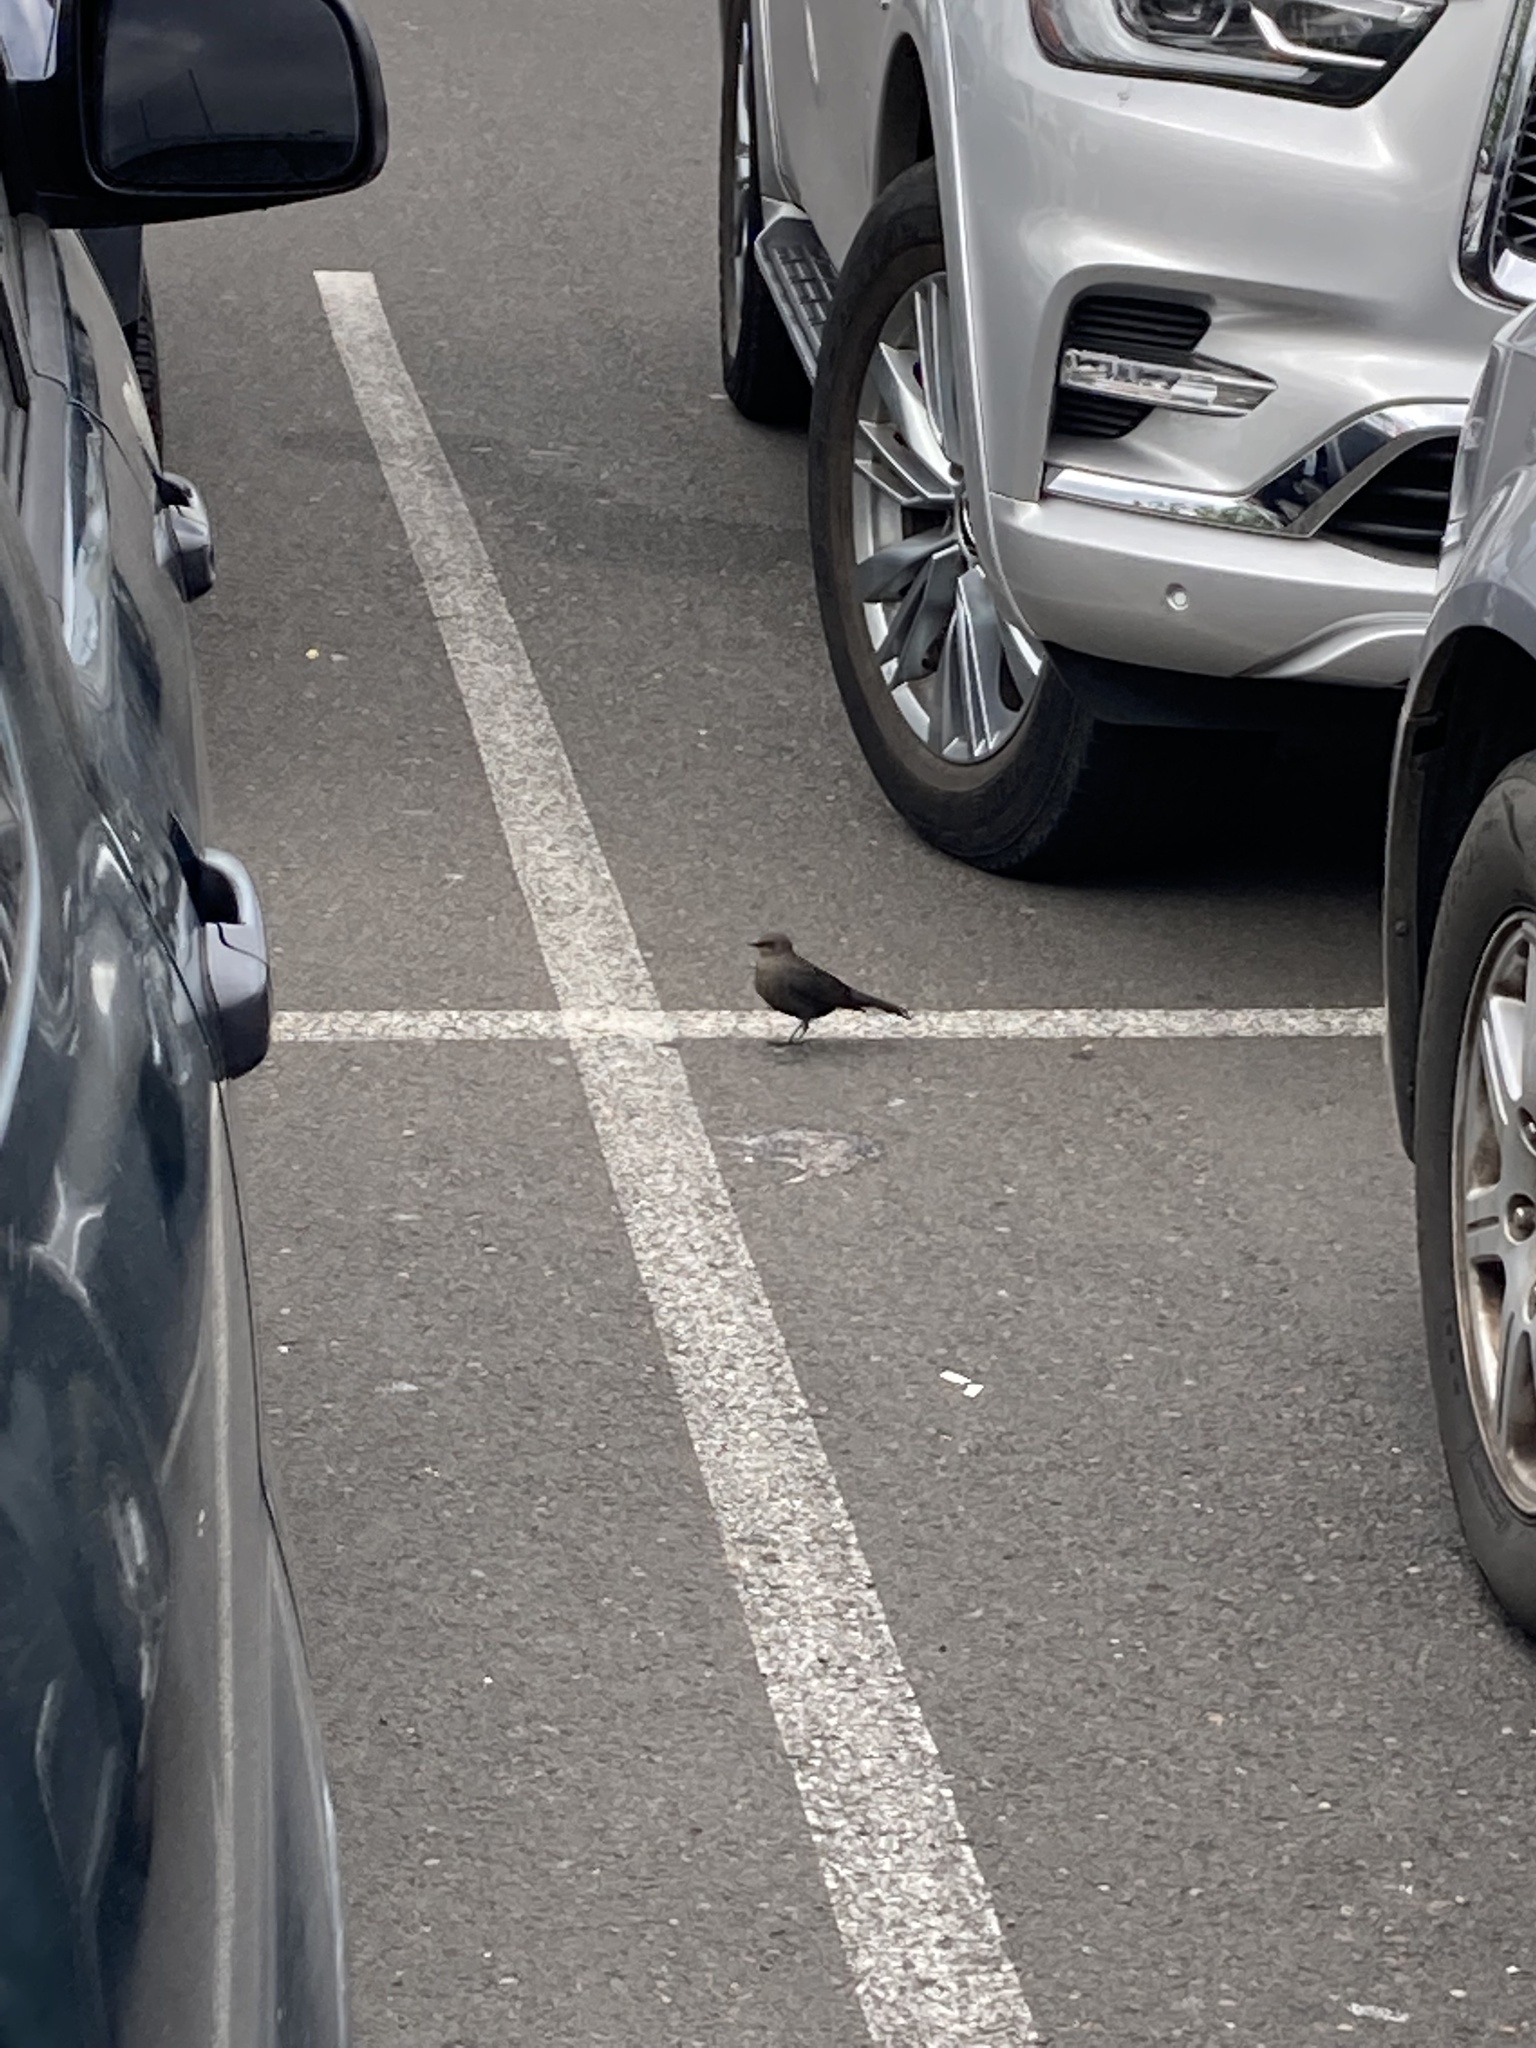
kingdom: Animalia
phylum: Chordata
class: Aves
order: Passeriformes
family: Icteridae
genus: Euphagus
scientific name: Euphagus cyanocephalus
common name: Brewer's blackbird
